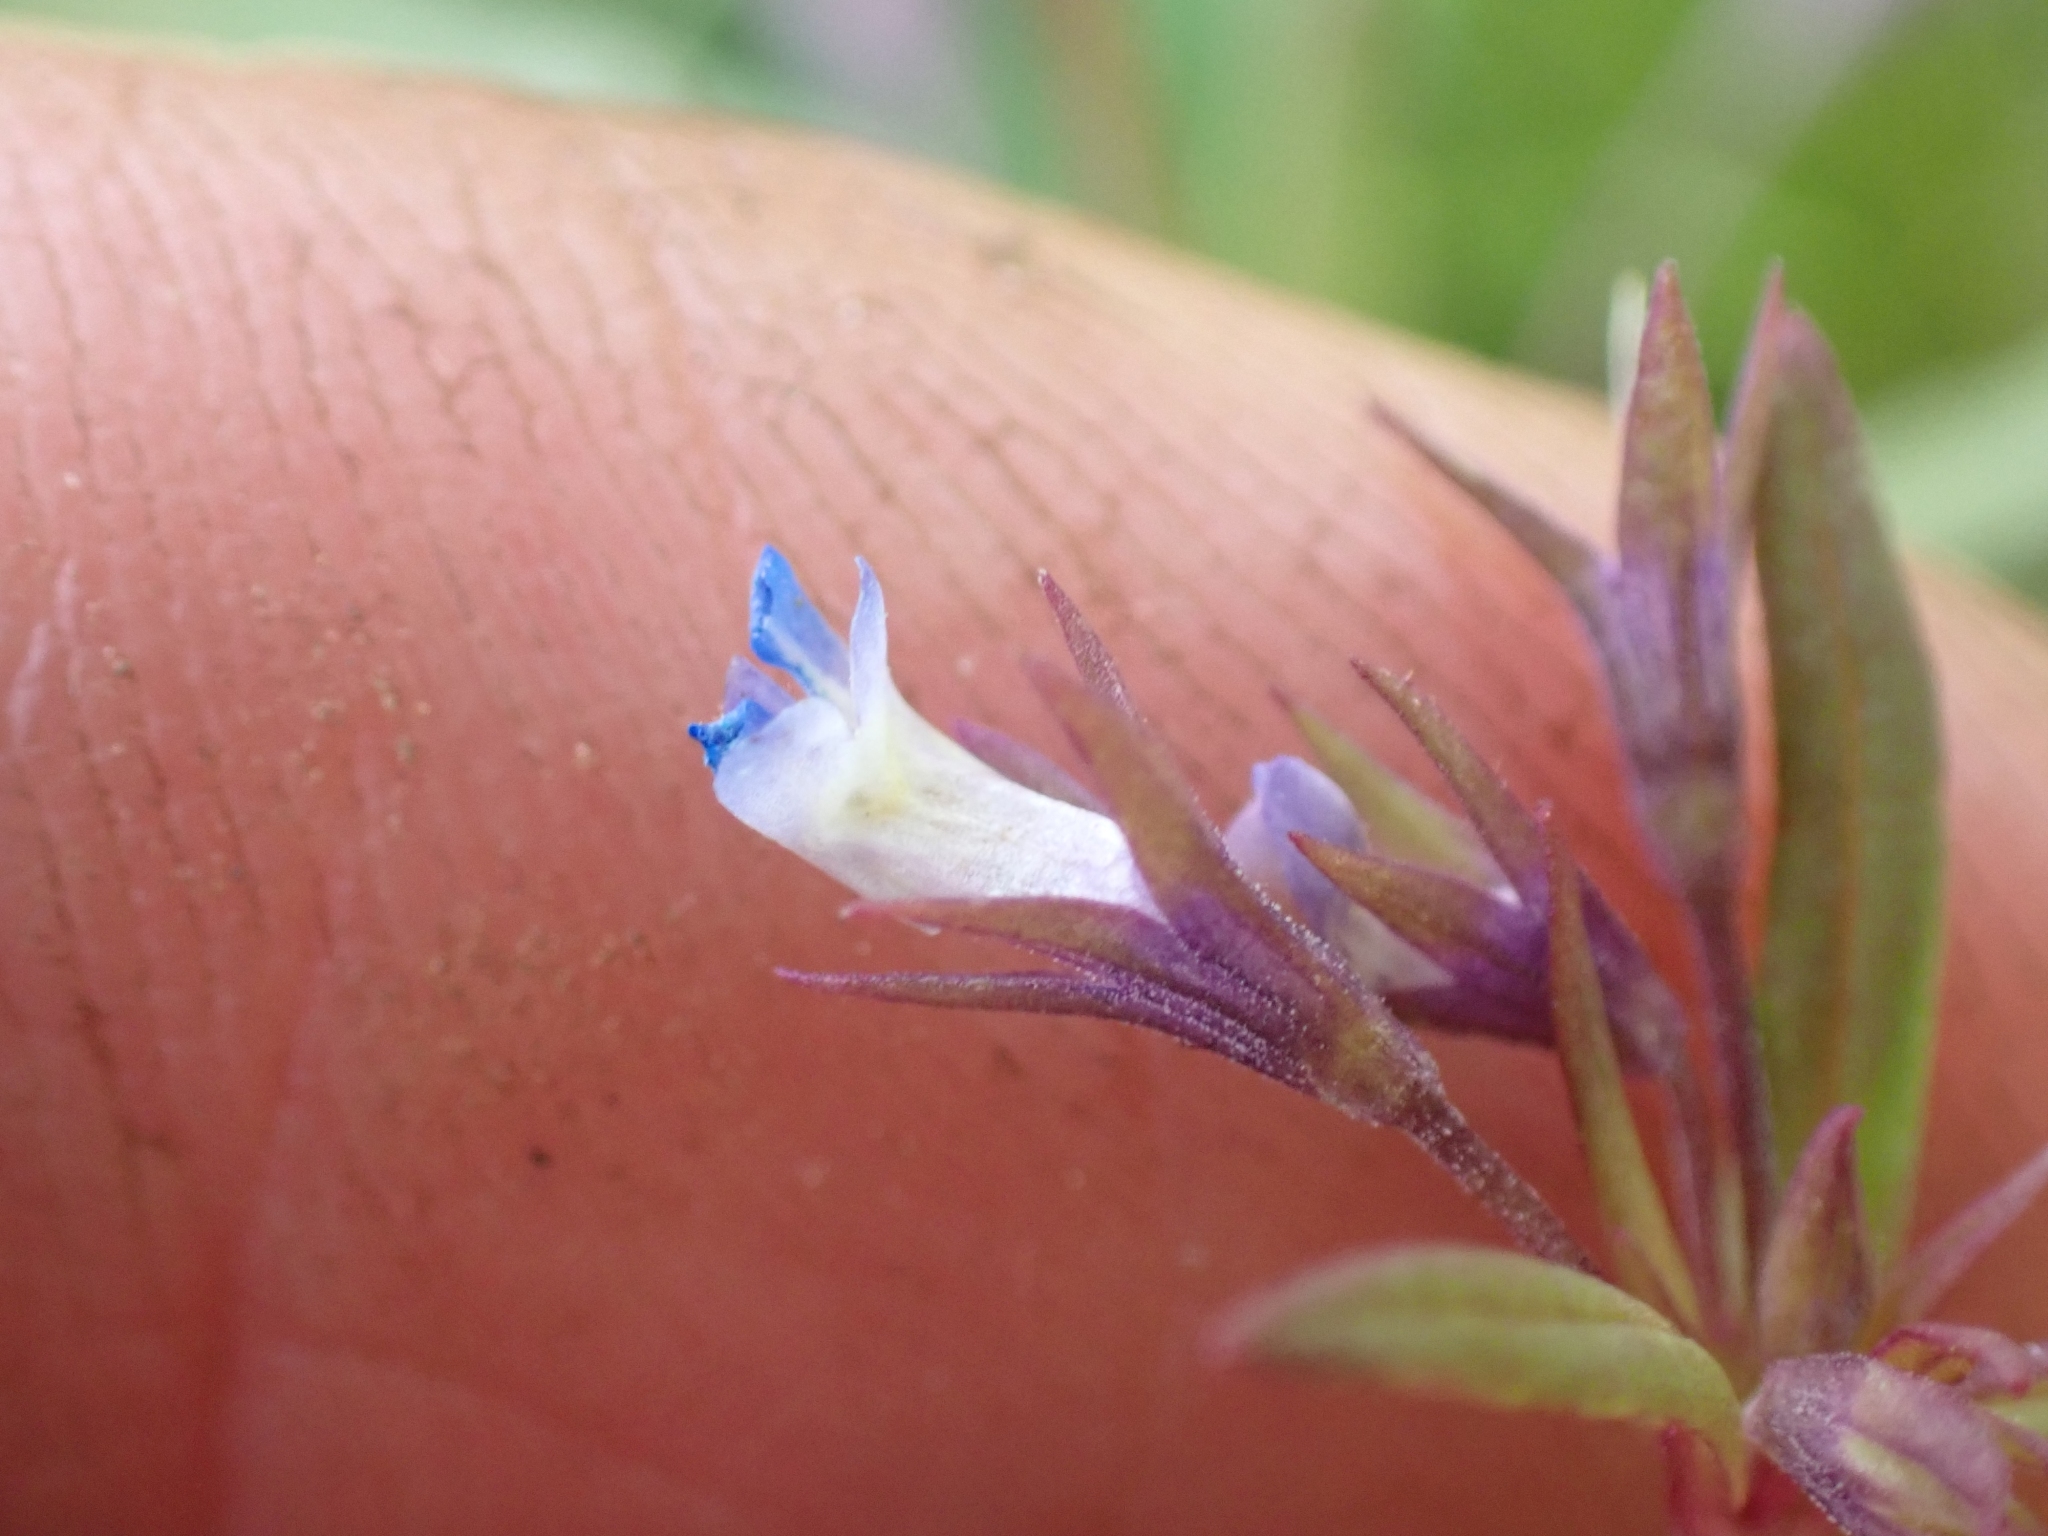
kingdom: Plantae
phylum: Tracheophyta
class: Magnoliopsida
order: Lamiales
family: Plantaginaceae
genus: Collinsia
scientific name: Collinsia parviflora
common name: Blue-lips
